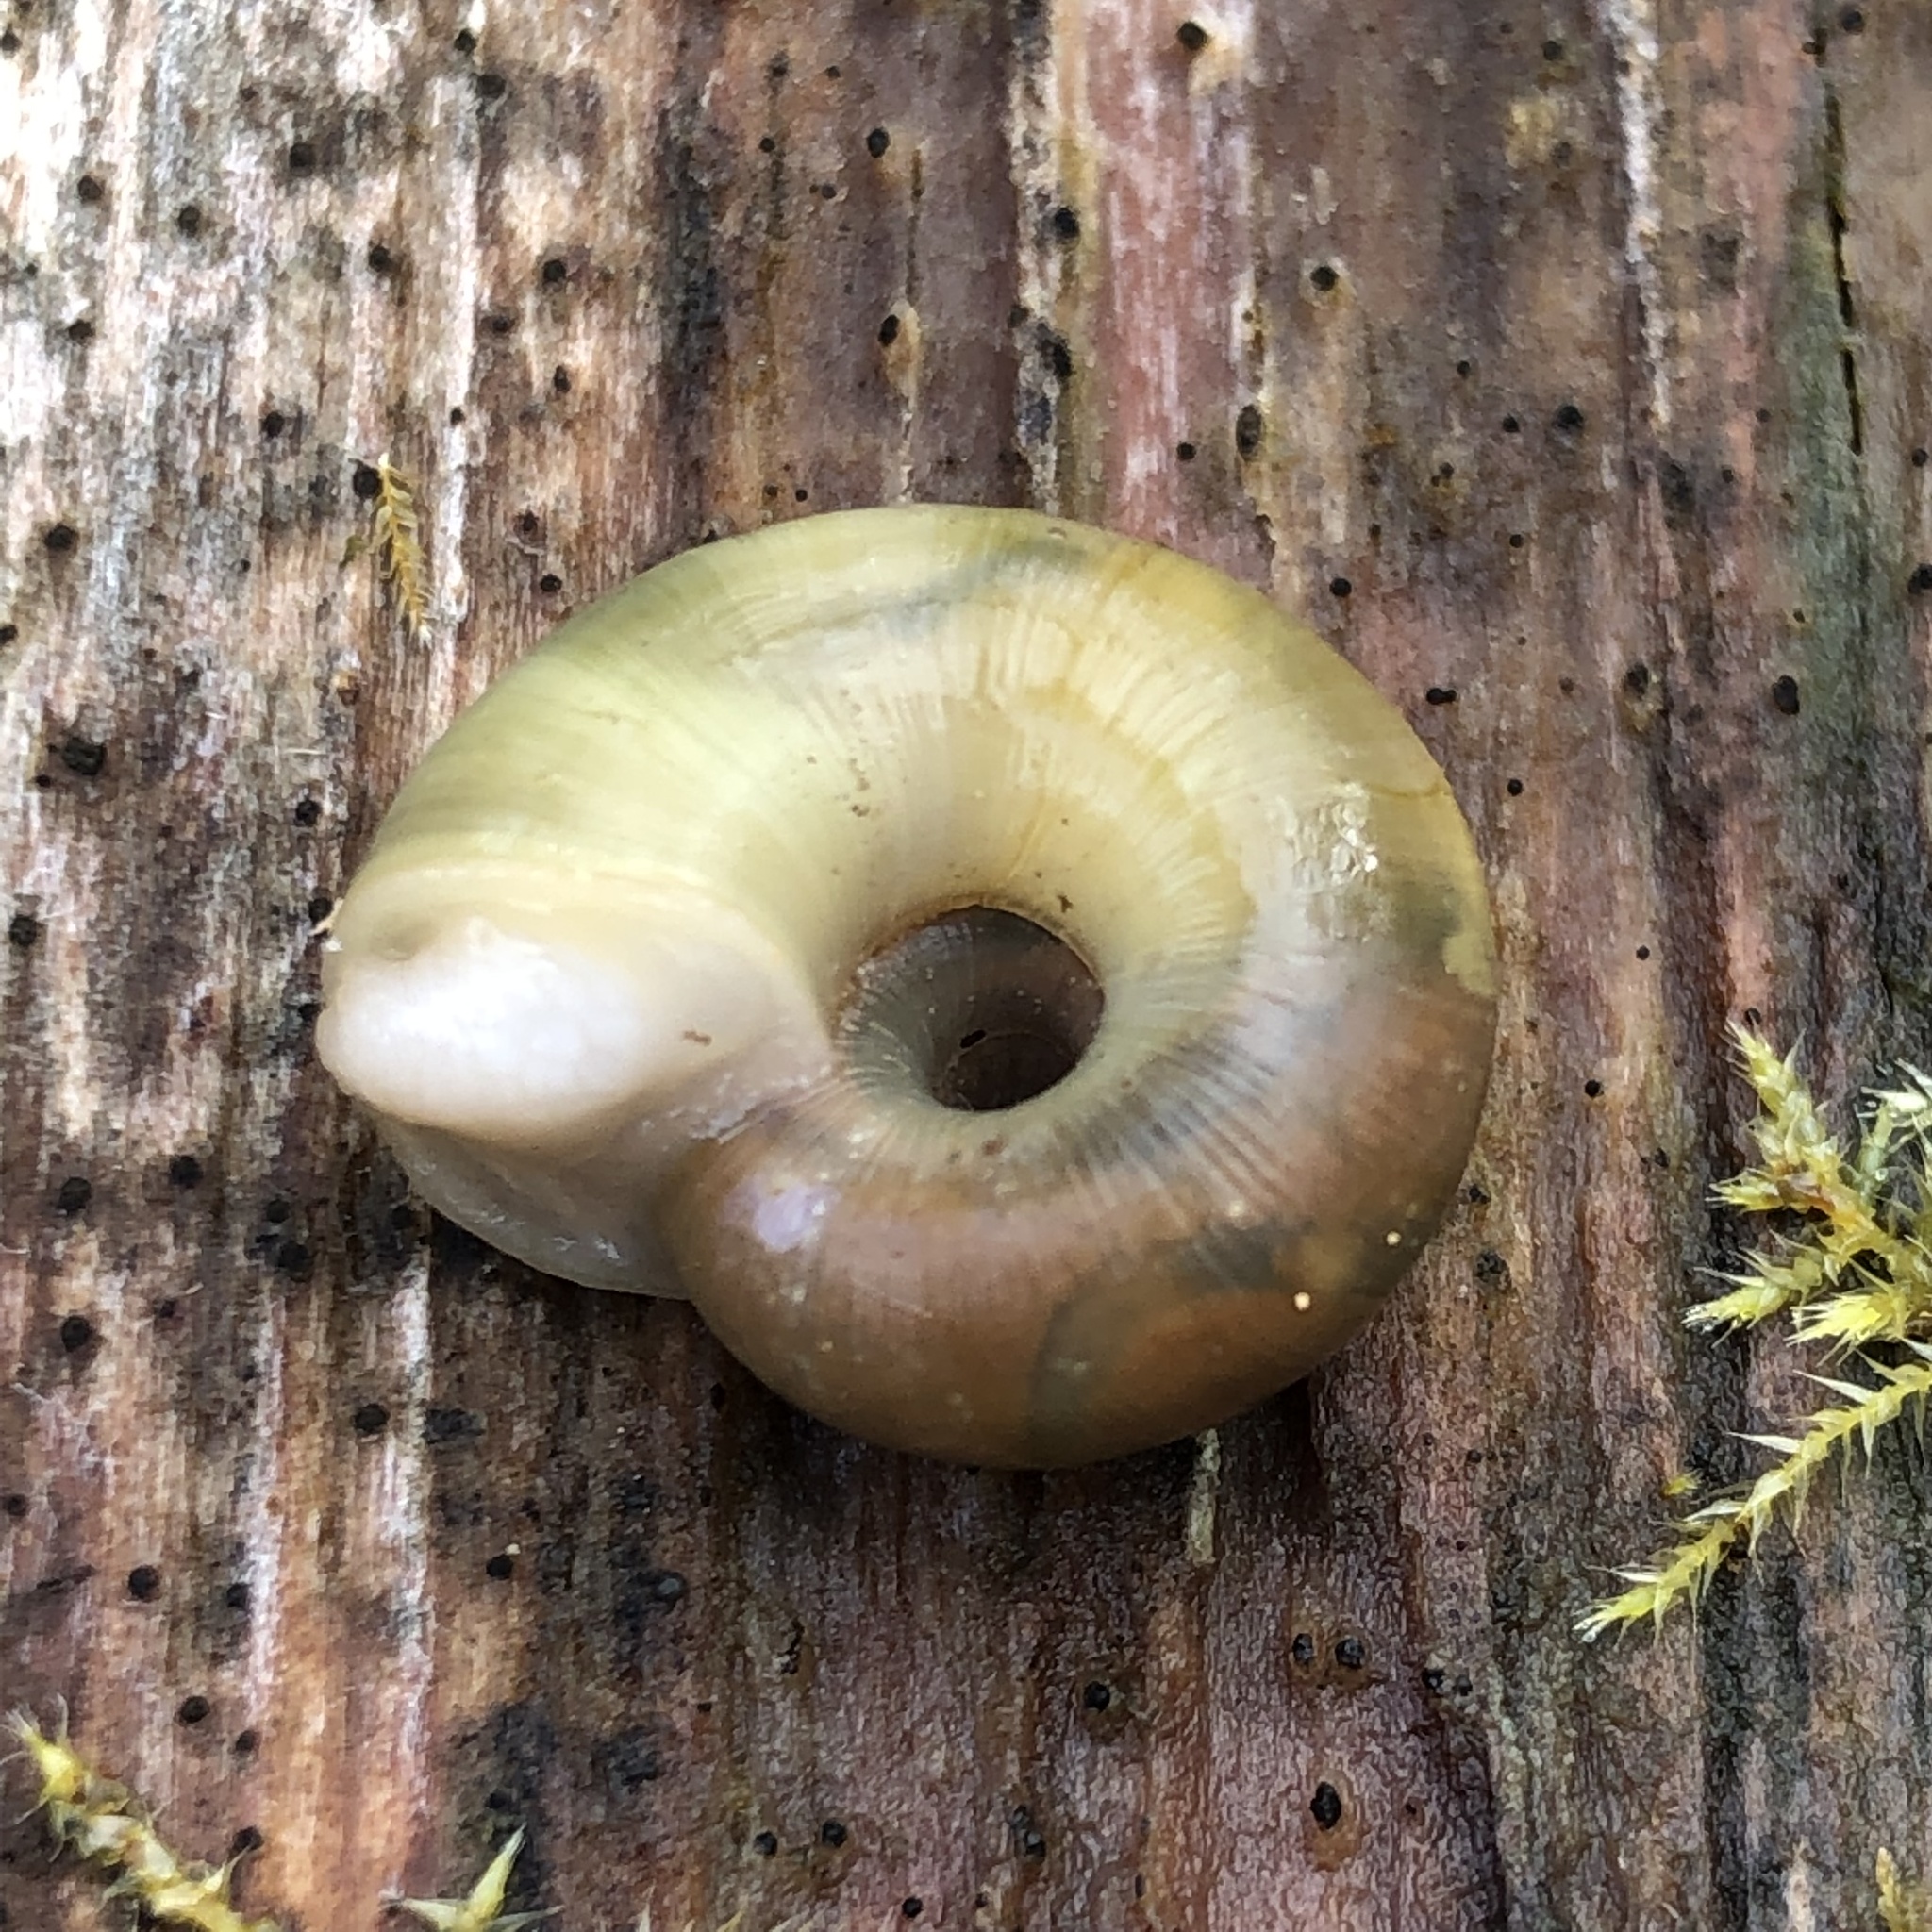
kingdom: Animalia
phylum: Mollusca
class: Gastropoda
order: Stylommatophora
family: Haplotrematidae
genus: Haplotrema
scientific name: Haplotrema vancouverense
